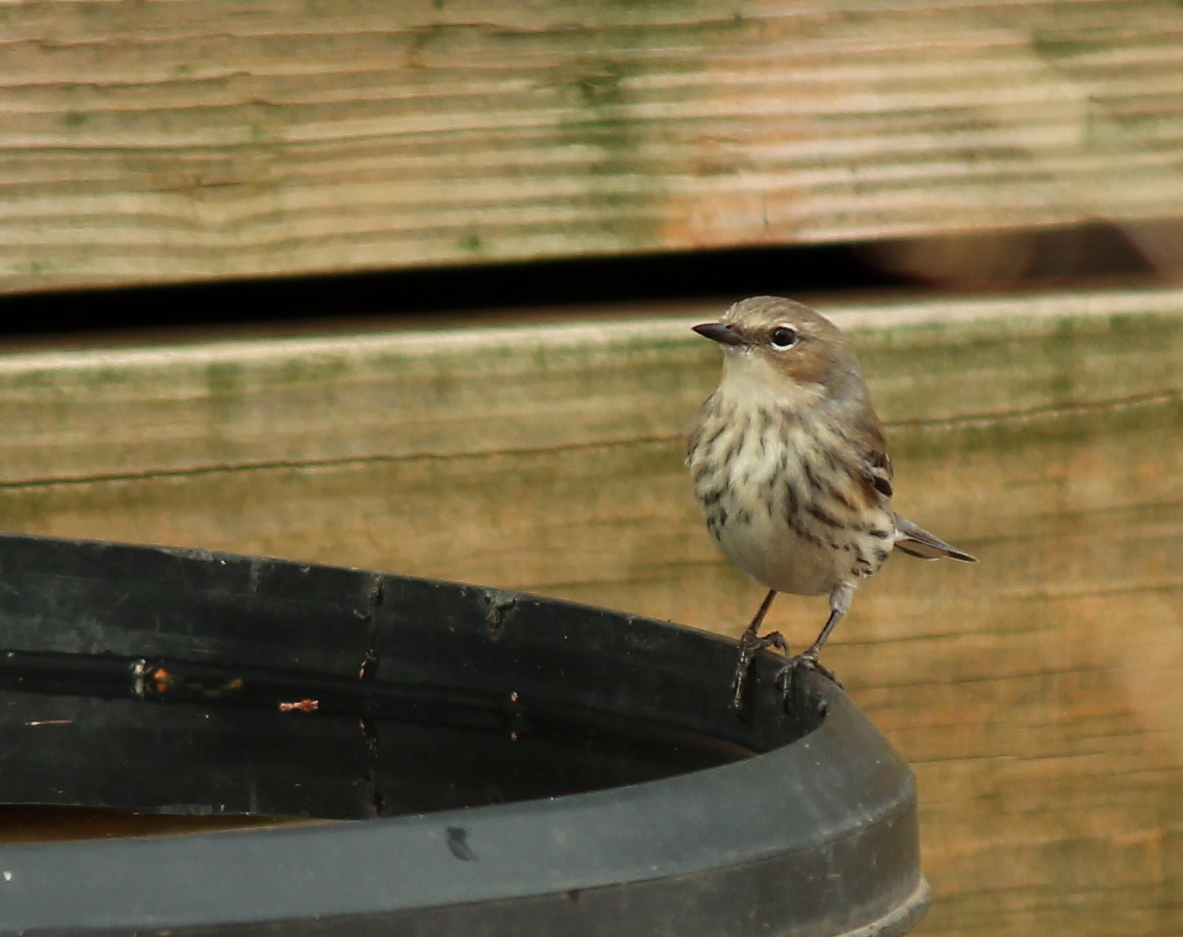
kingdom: Animalia
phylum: Chordata
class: Aves
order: Passeriformes
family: Parulidae
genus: Setophaga
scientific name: Setophaga coronata
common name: Myrtle warbler
